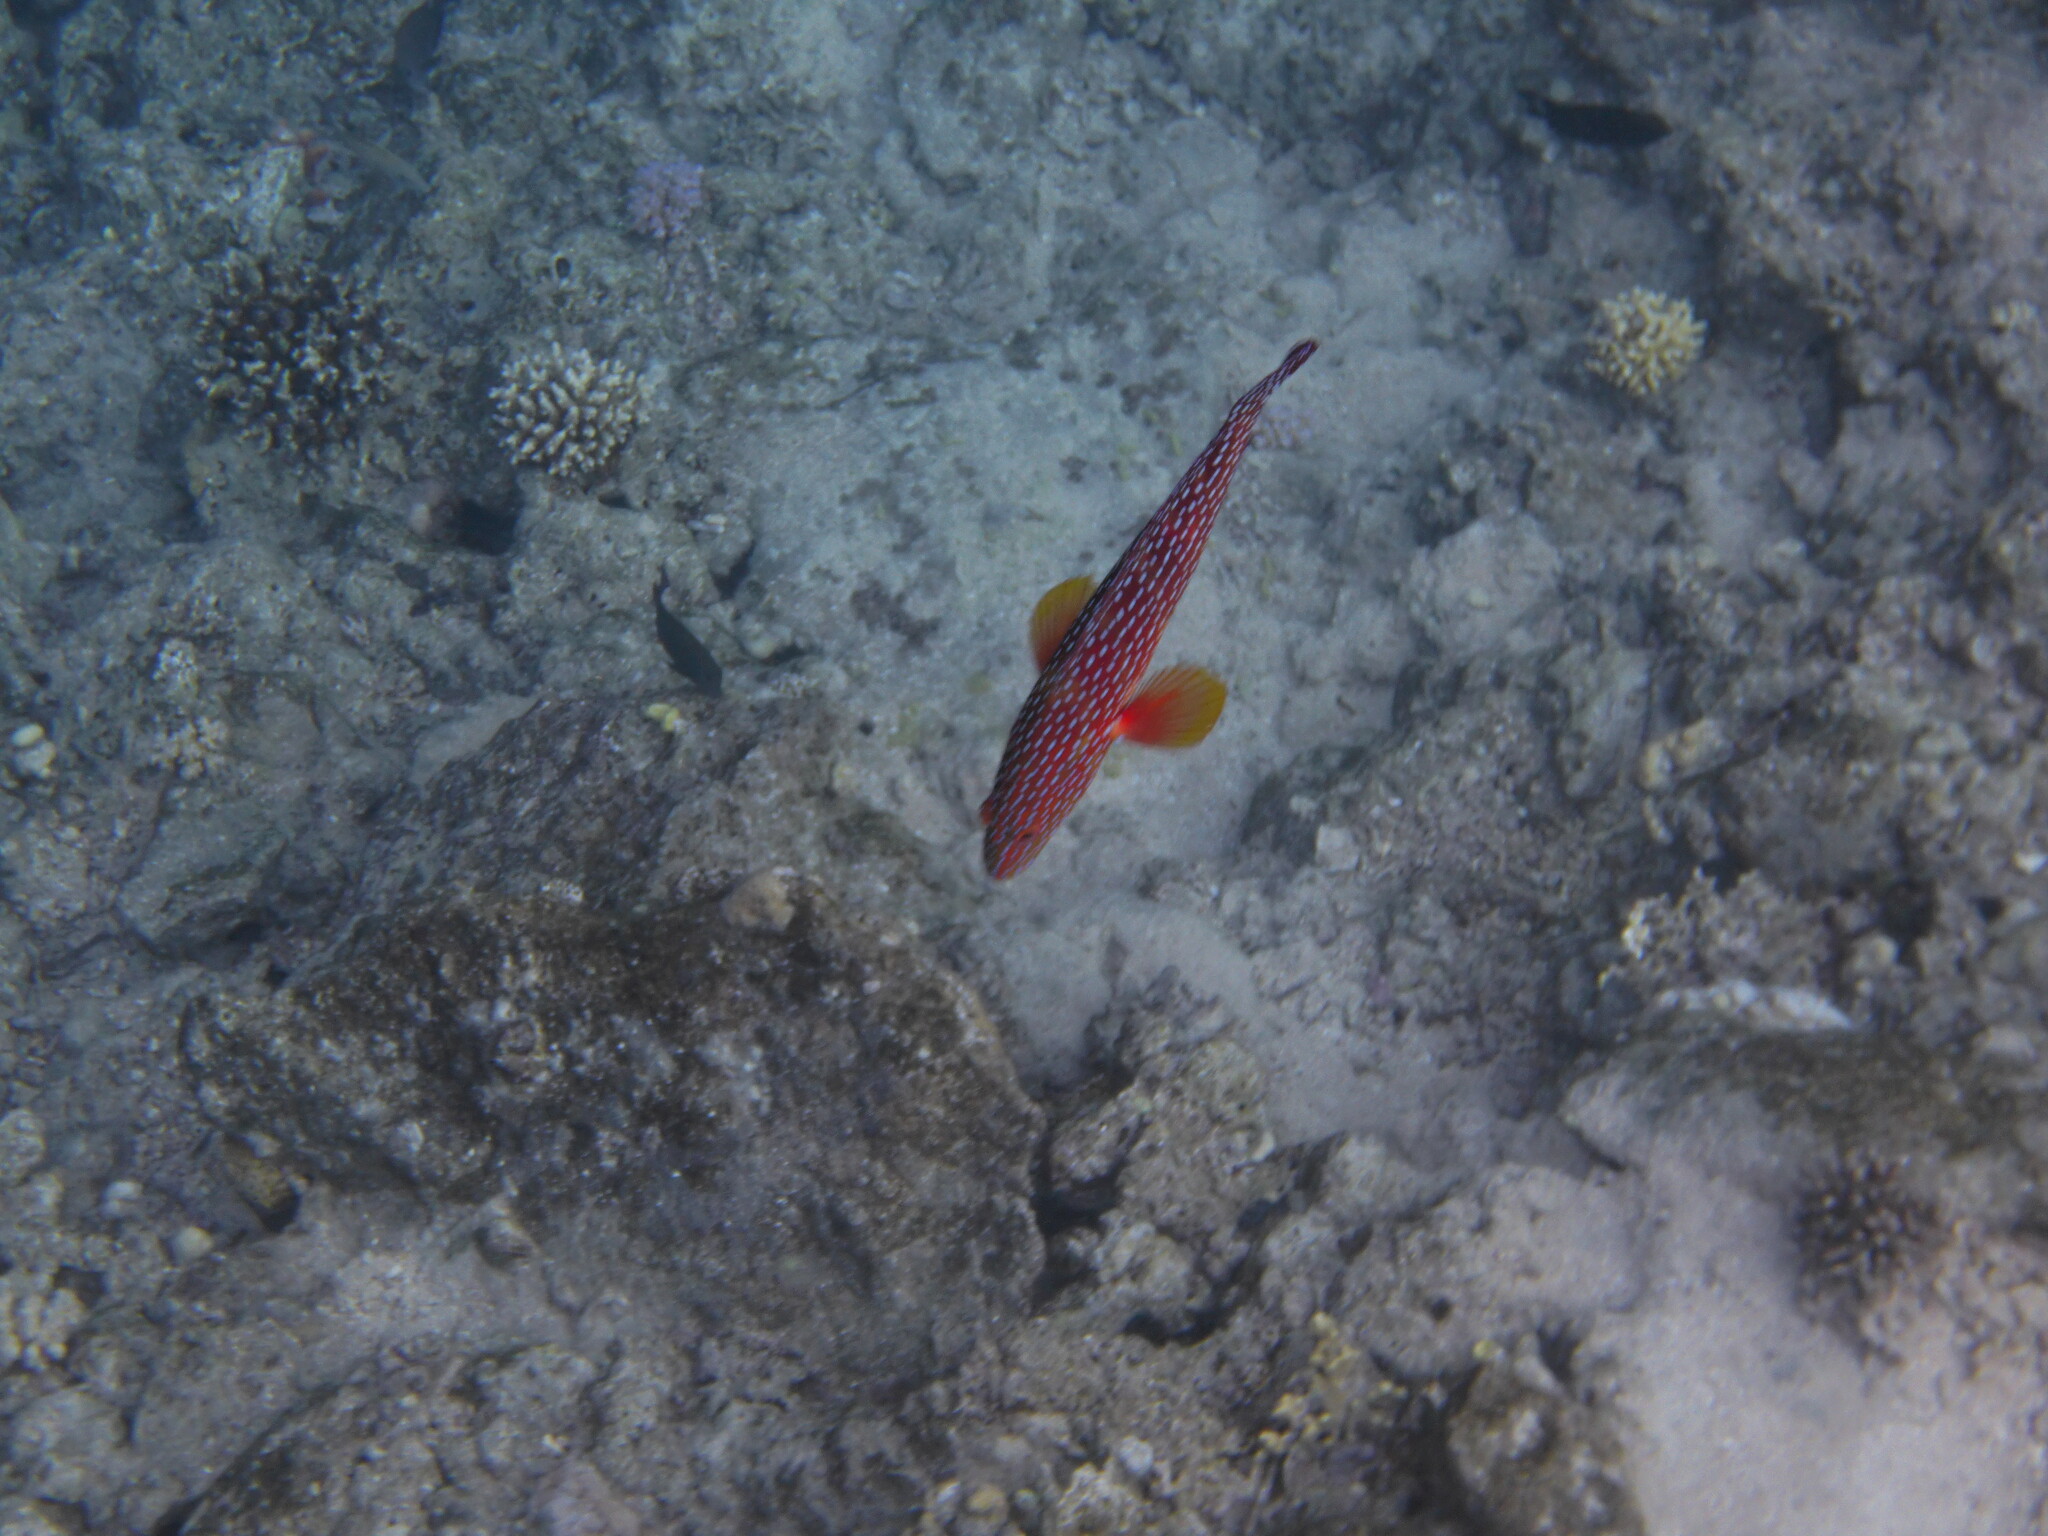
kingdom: Animalia
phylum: Chordata
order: Perciformes
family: Serranidae
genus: Cephalopholis
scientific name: Cephalopholis miniata
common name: Coral hind
